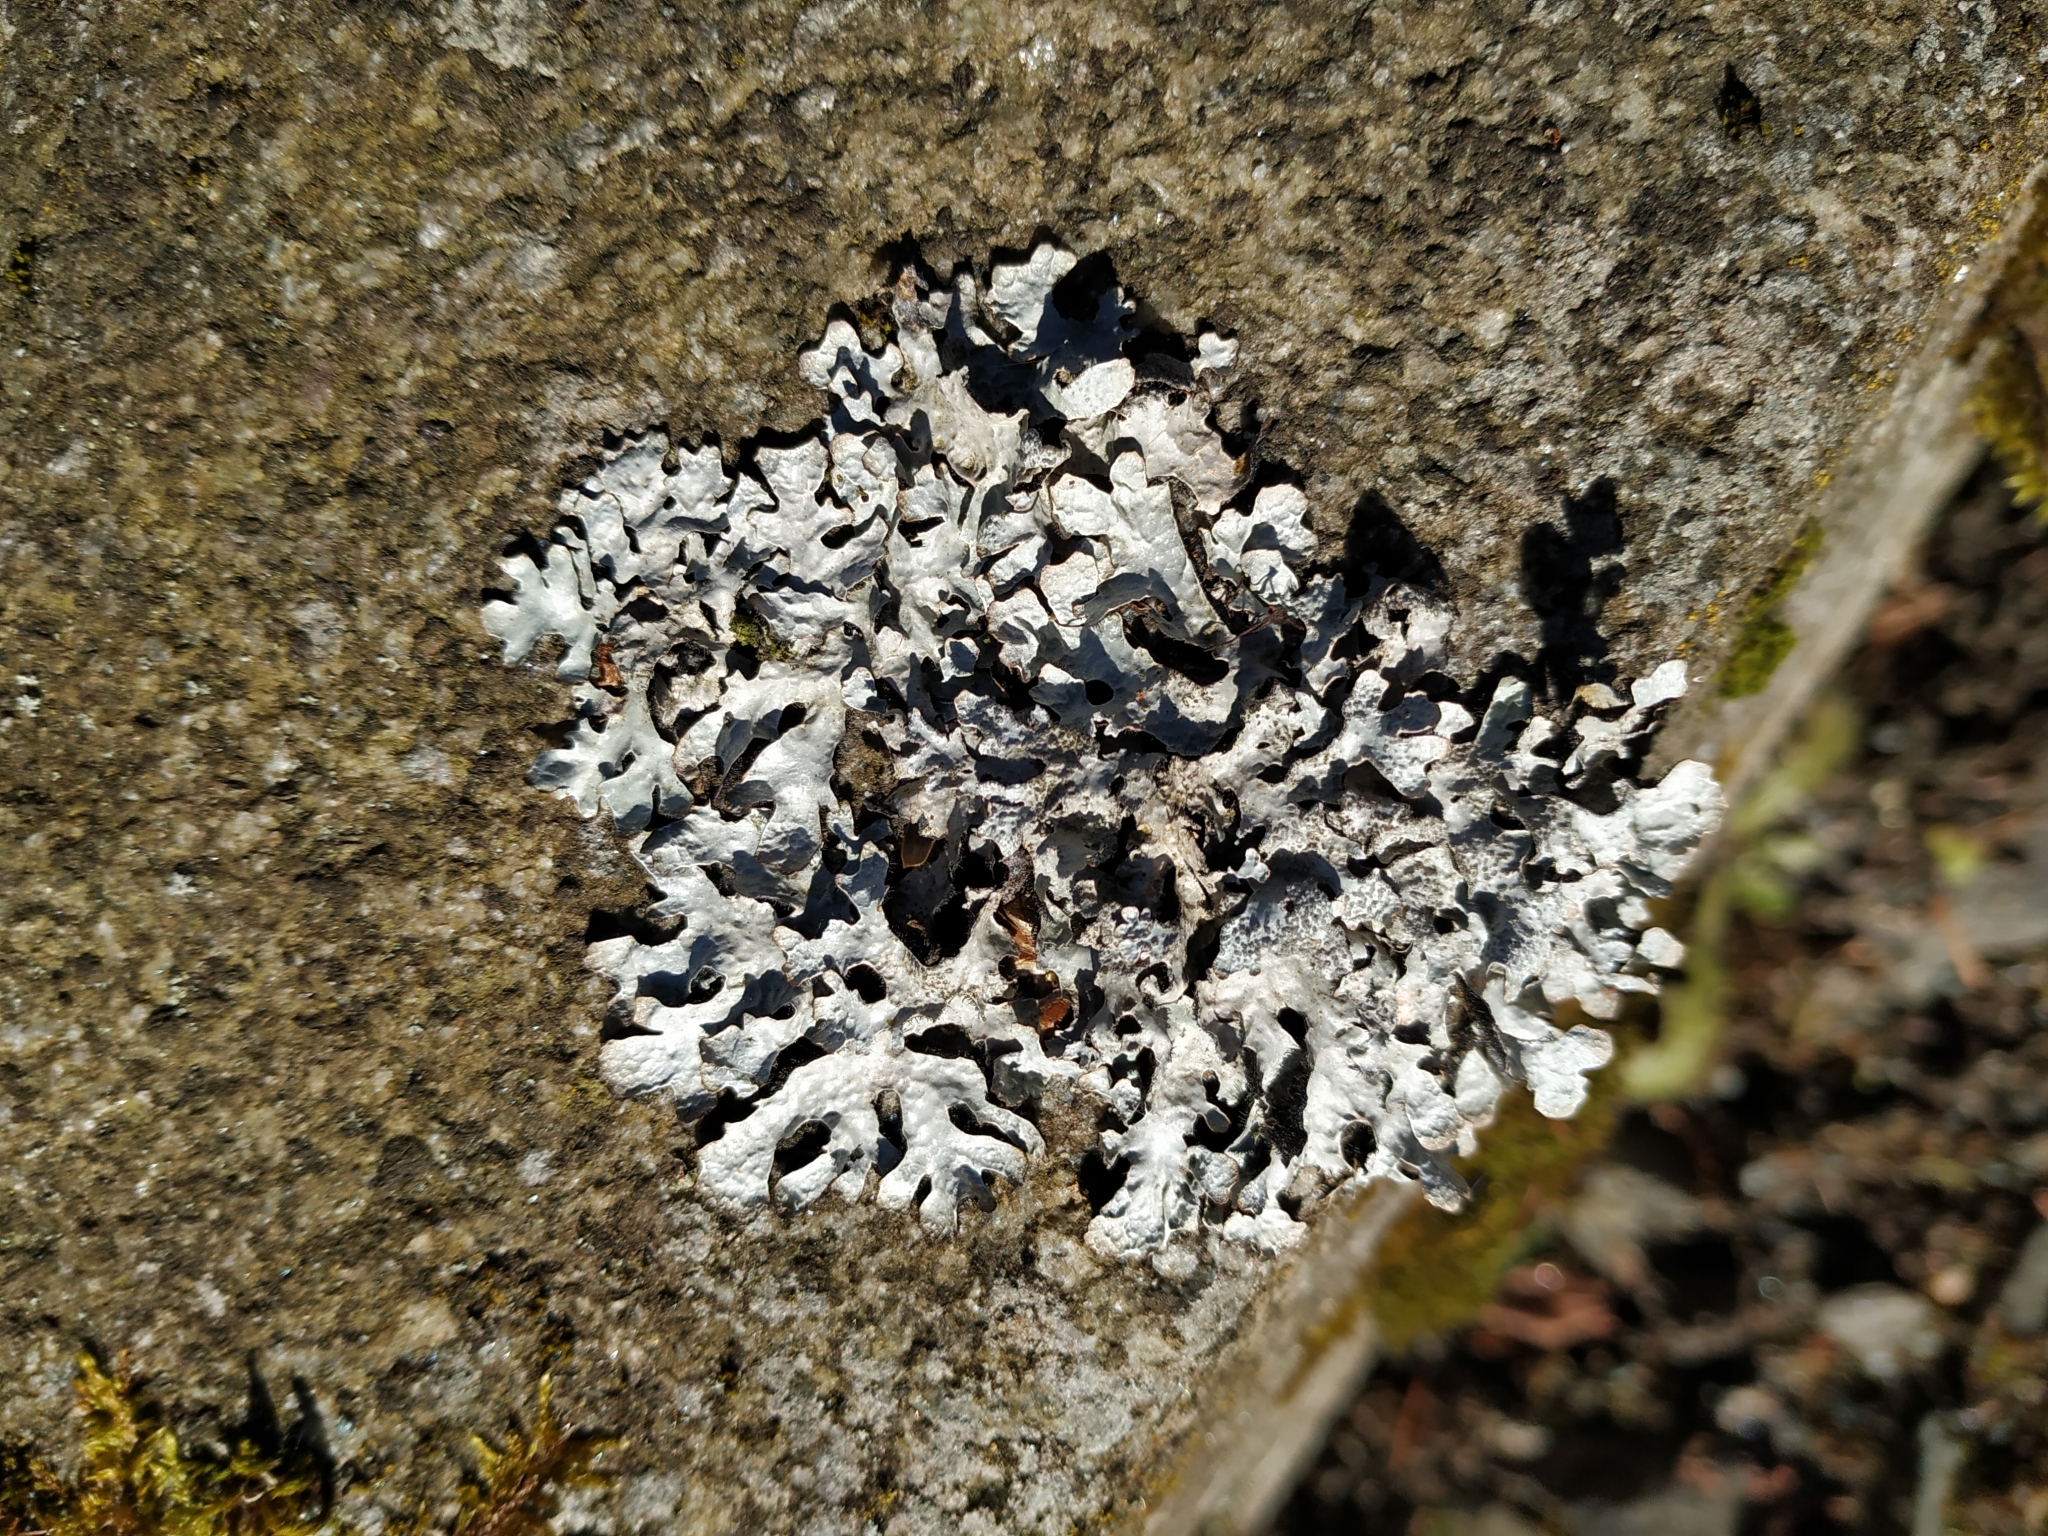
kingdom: Fungi
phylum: Ascomycota
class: Lecanoromycetes
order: Lecanorales
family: Parmeliaceae
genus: Parmelia
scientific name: Parmelia sulcata
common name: Netted shield lichen
